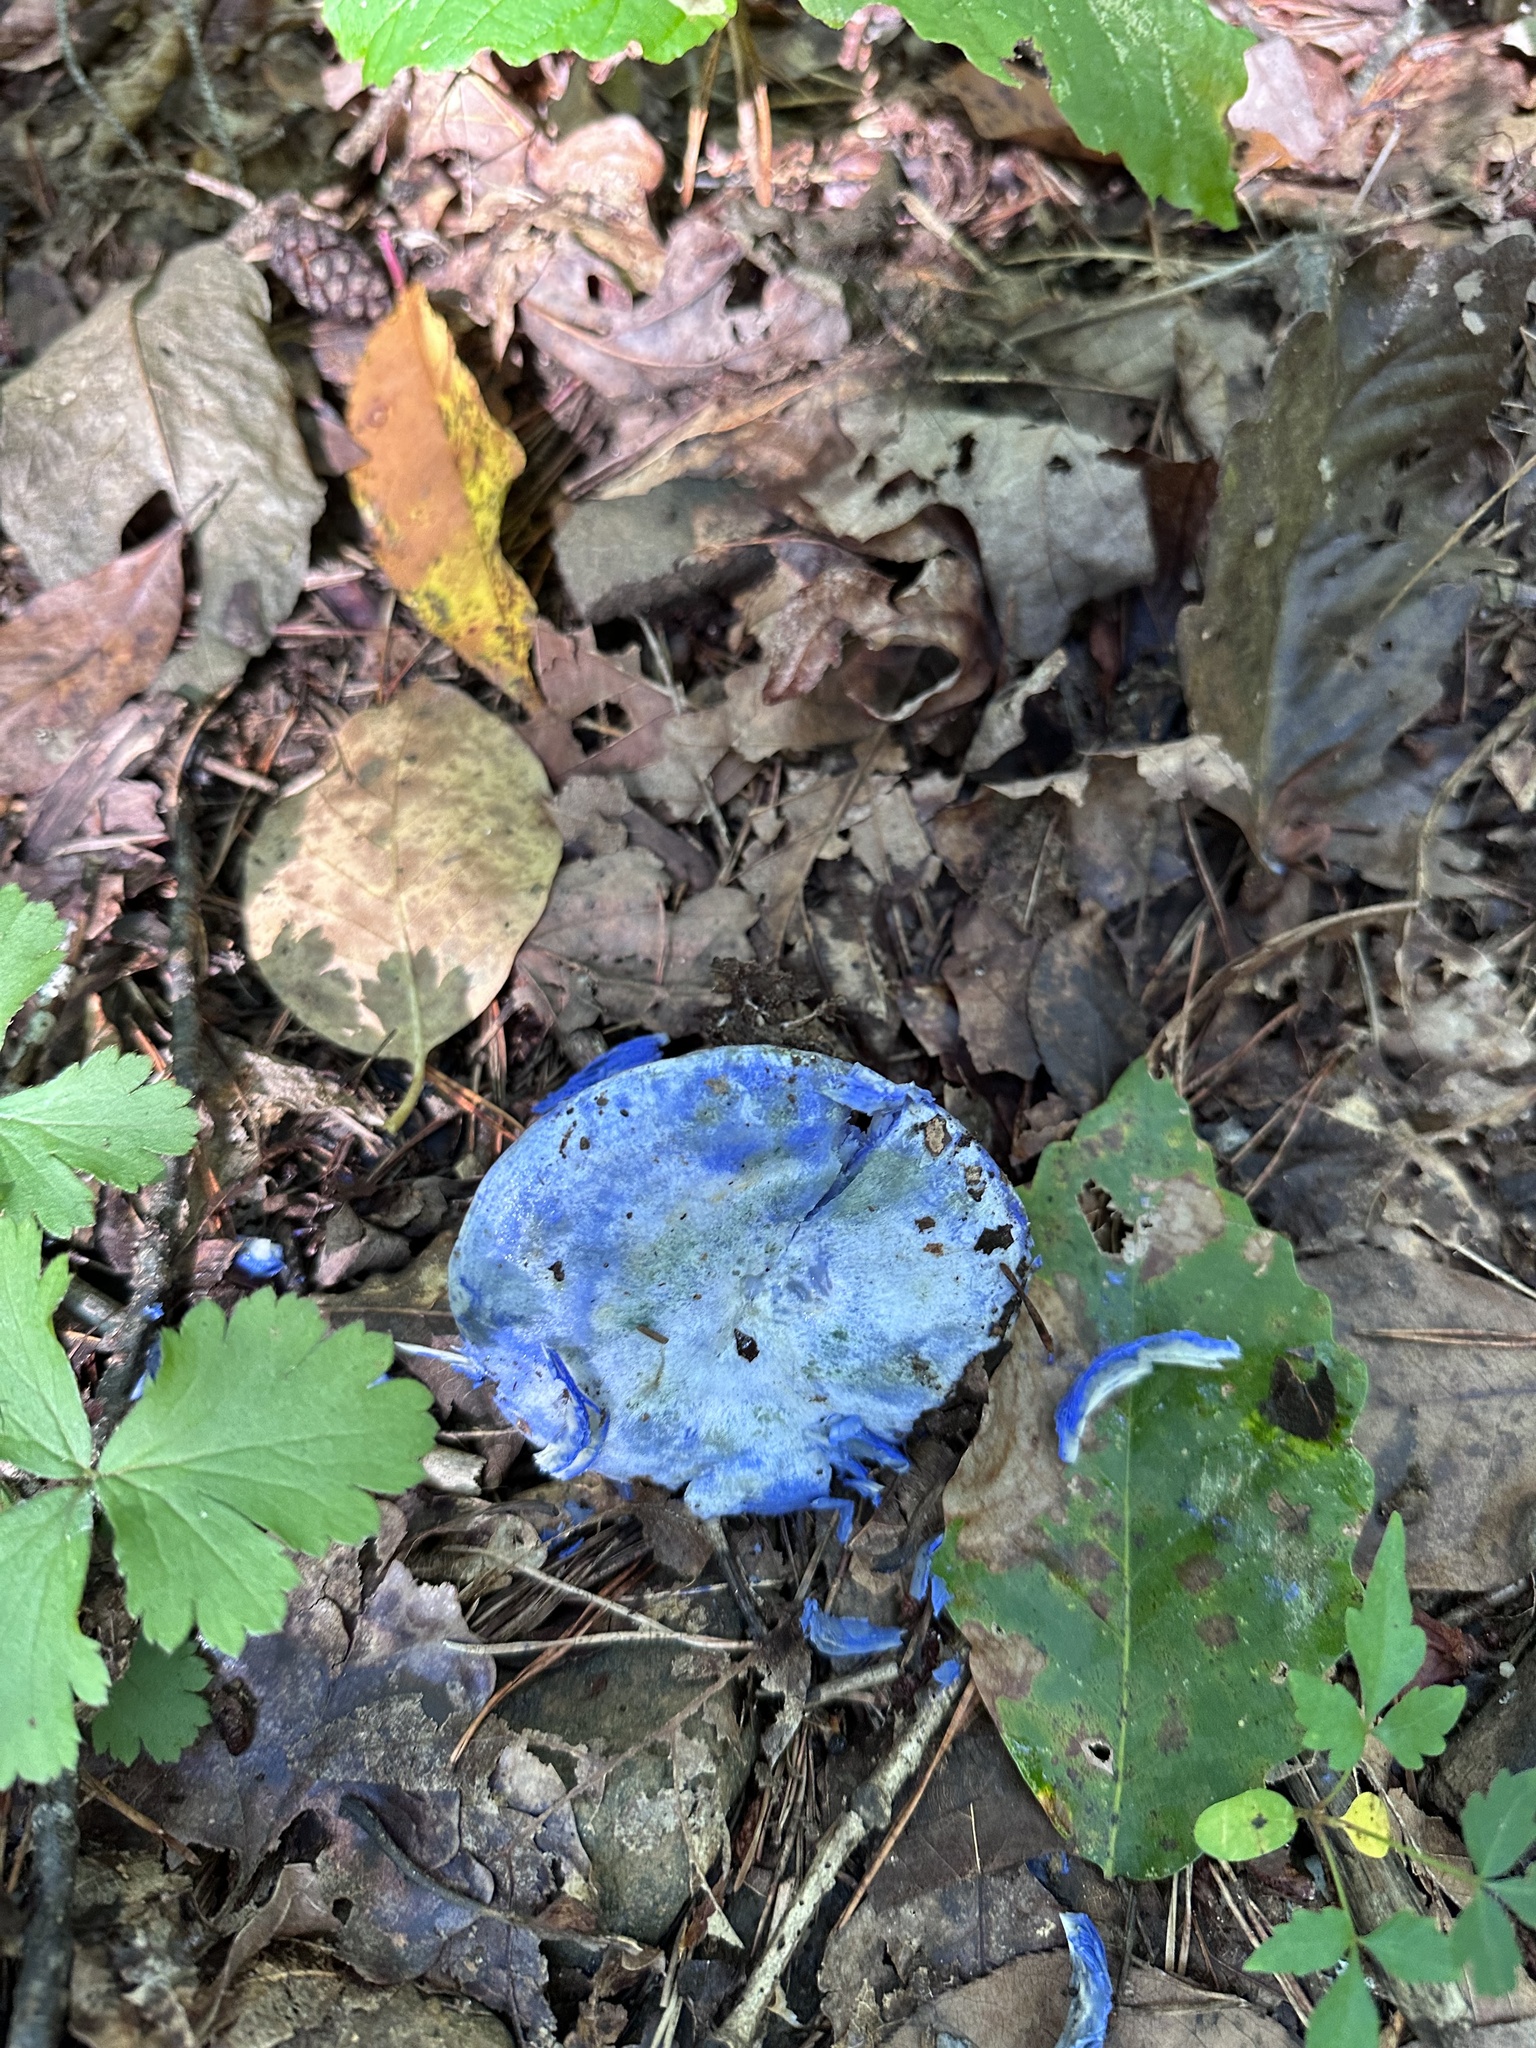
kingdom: Fungi
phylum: Basidiomycota
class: Agaricomycetes
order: Russulales
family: Russulaceae
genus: Lactarius
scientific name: Lactarius indigo
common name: Indigo milk cap
